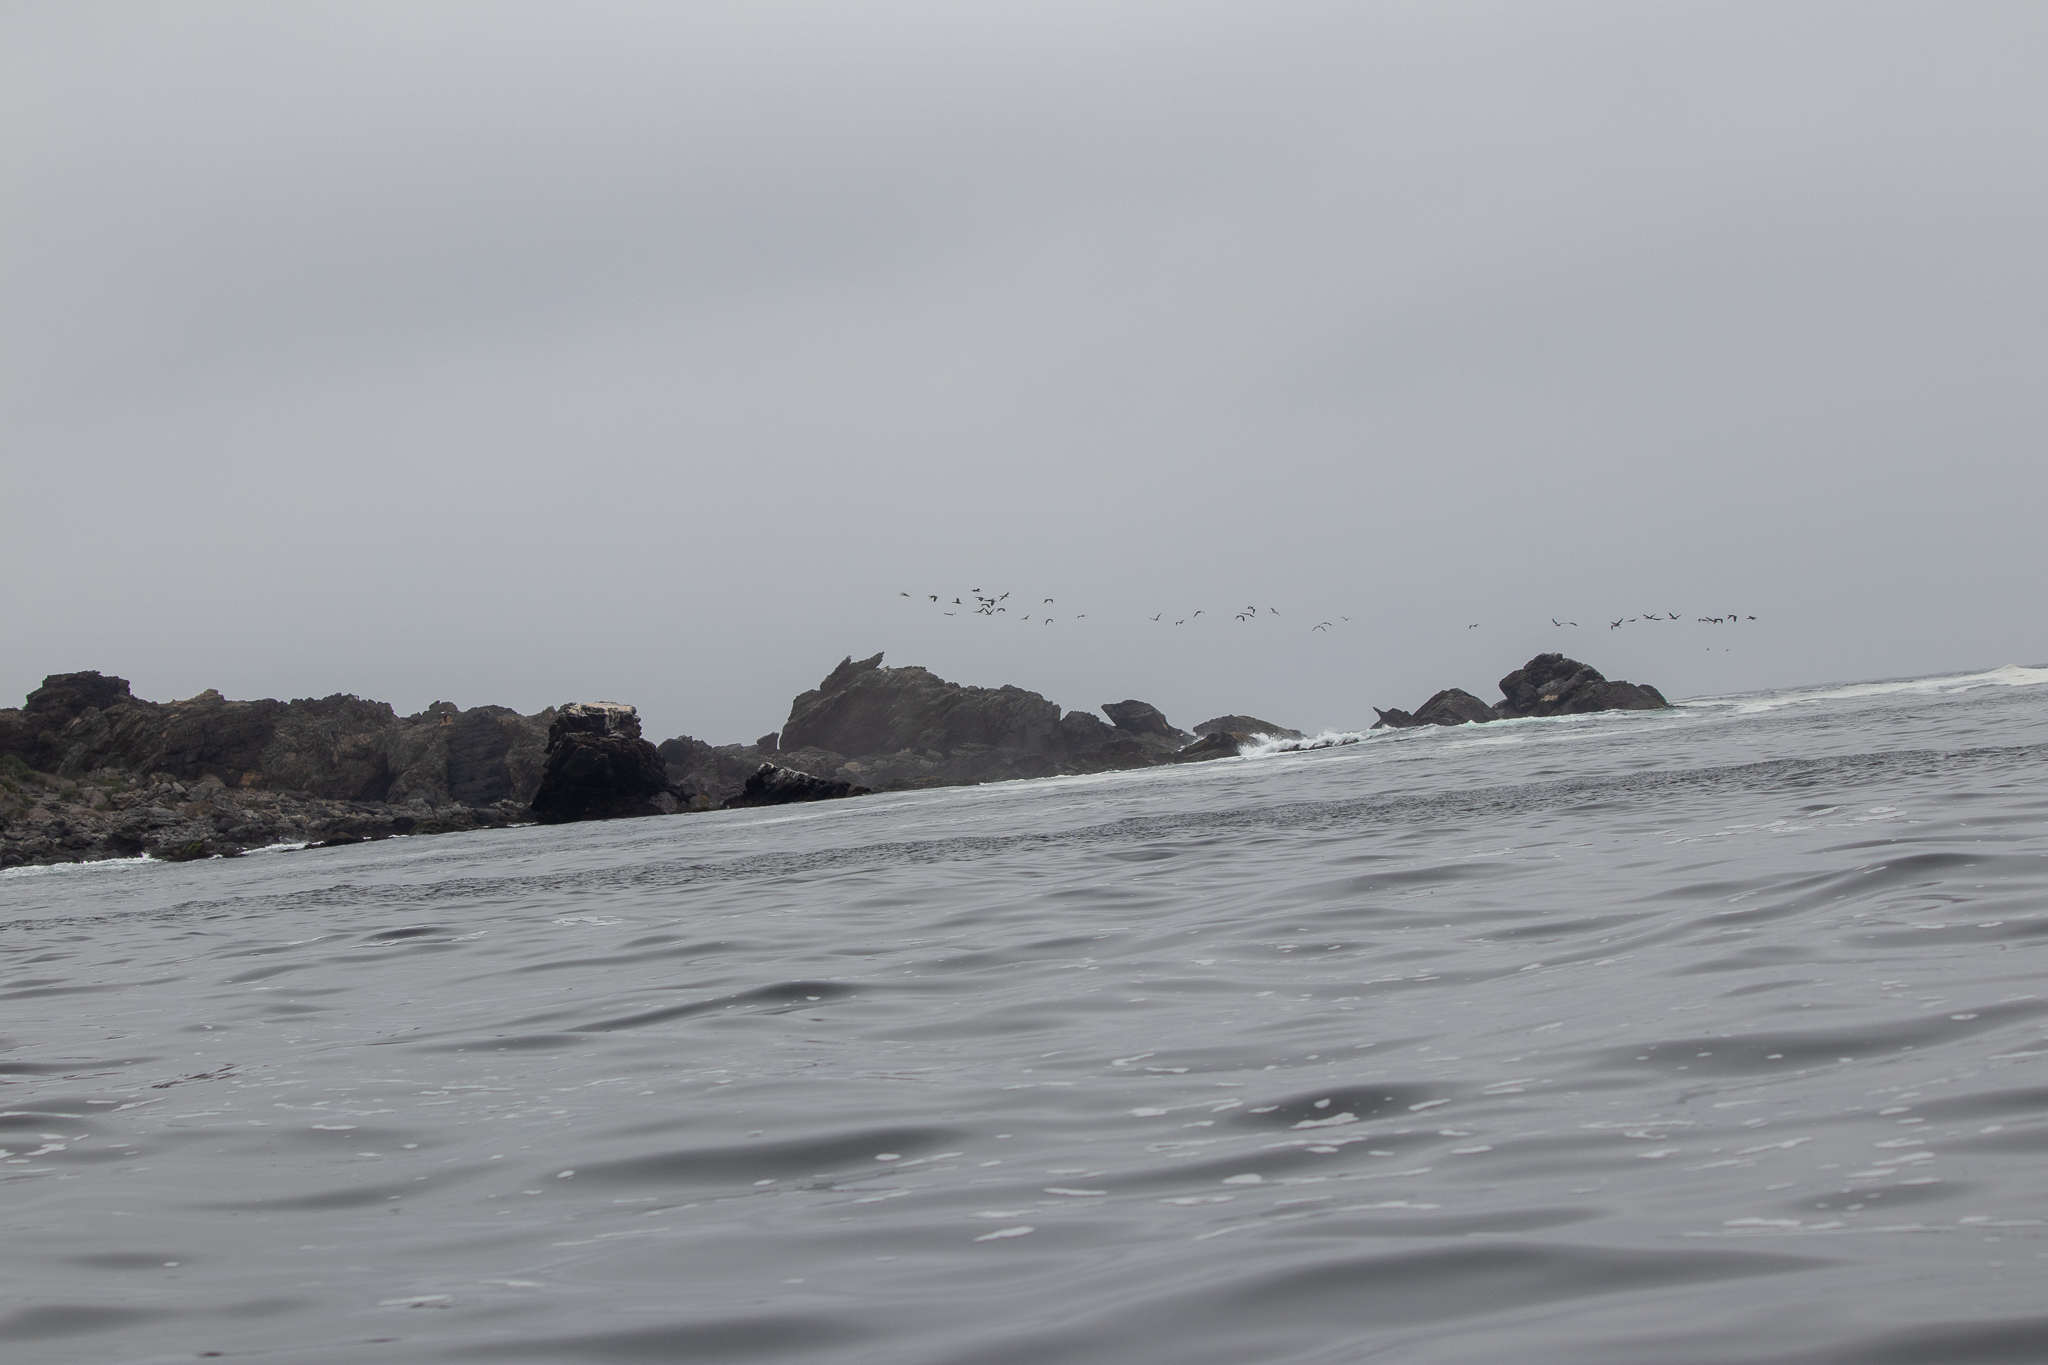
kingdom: Animalia
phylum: Chordata
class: Aves
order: Pelecaniformes
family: Pelecanidae
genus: Pelecanus
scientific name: Pelecanus thagus
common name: Peruvian pelican
